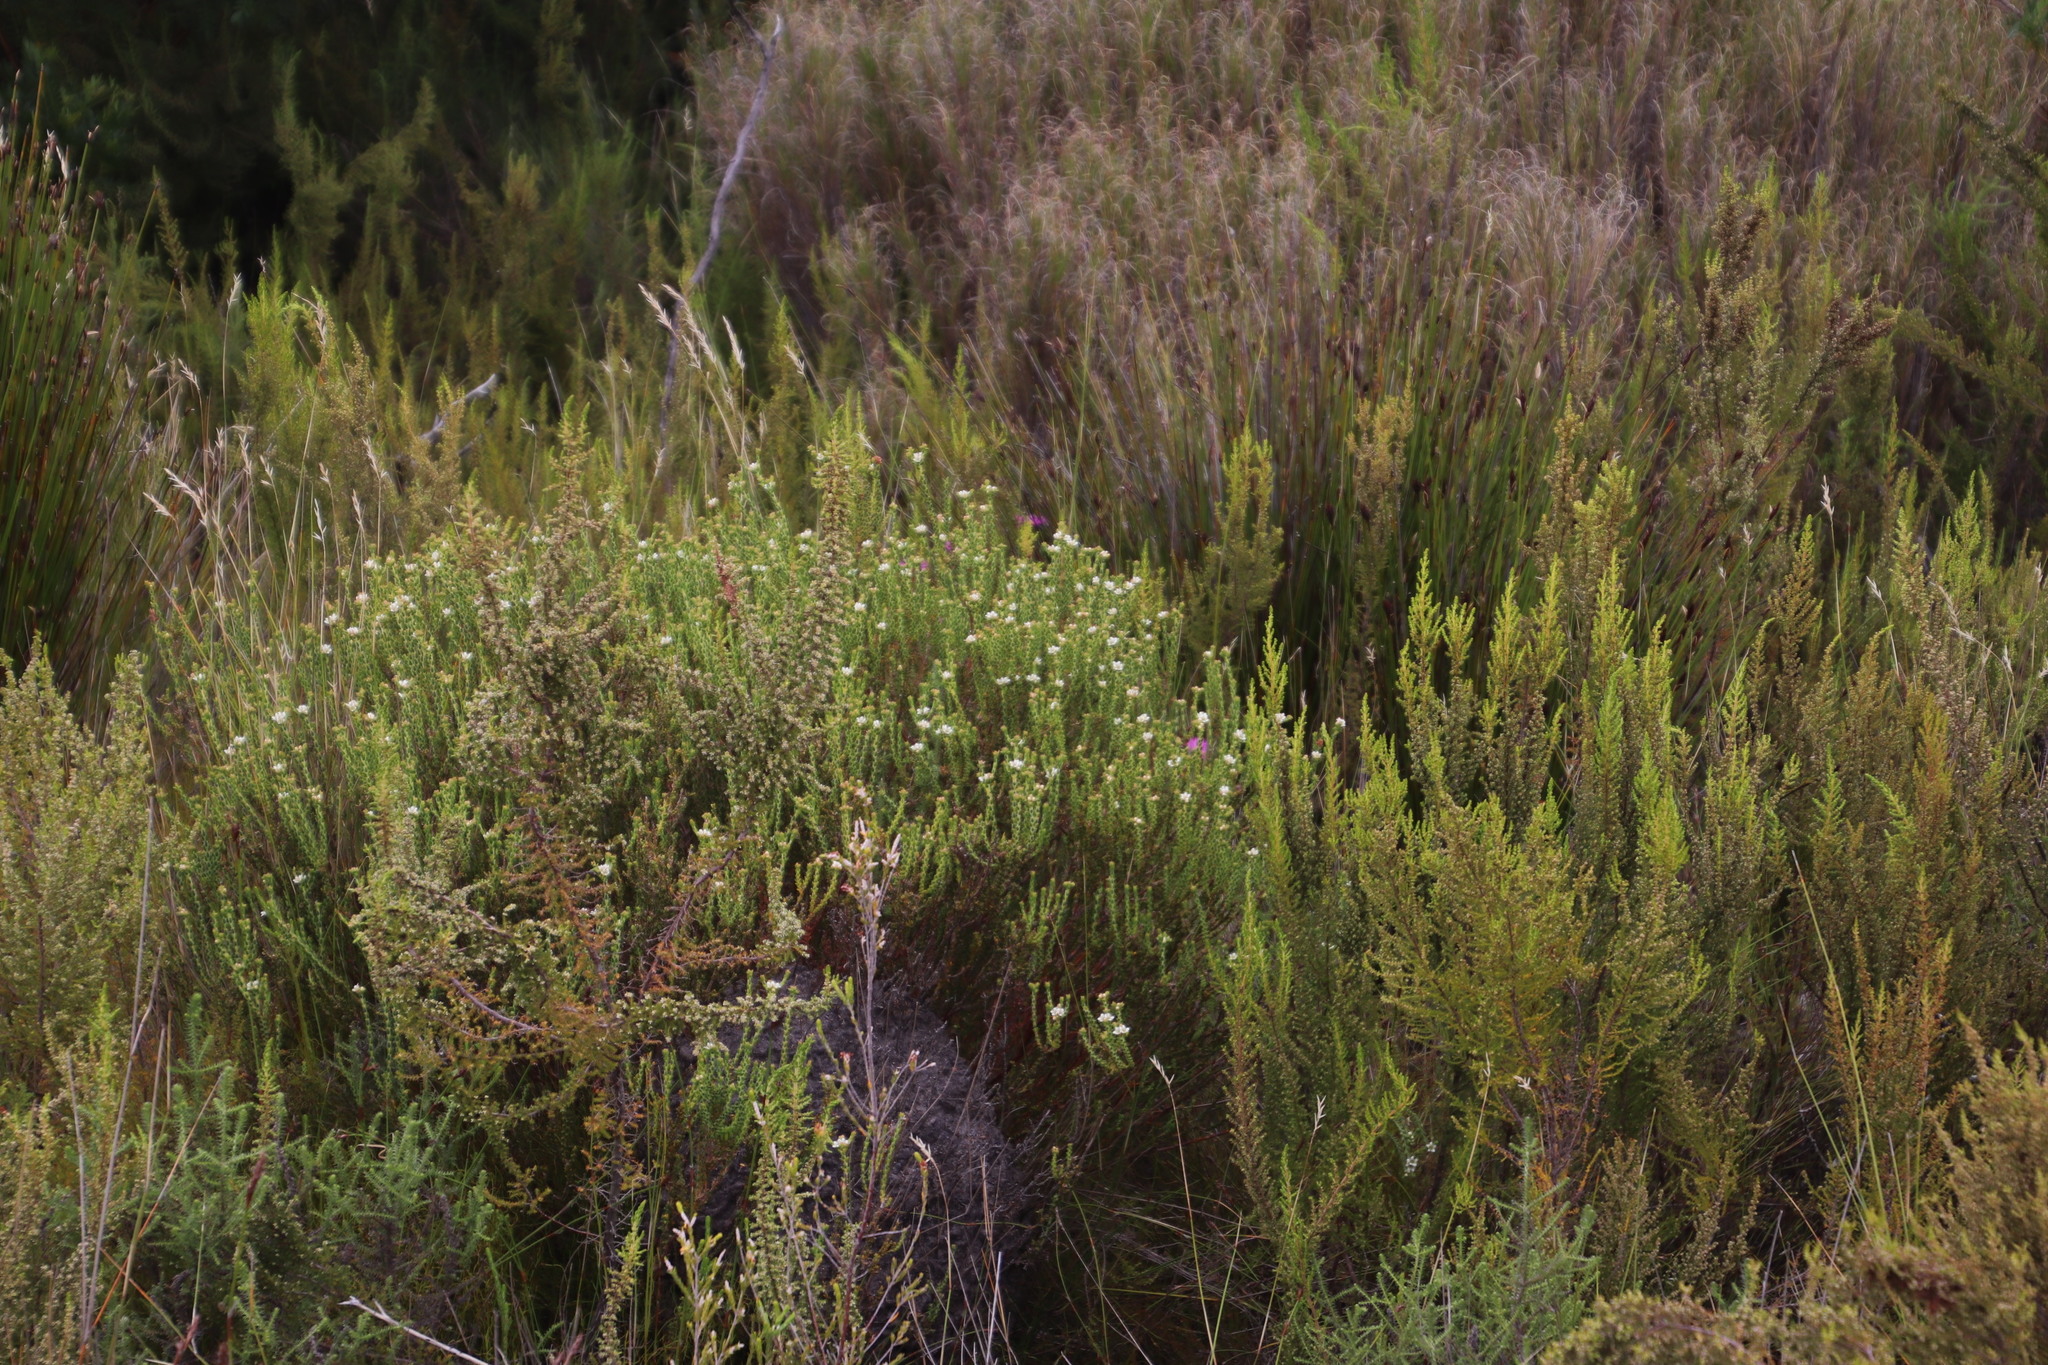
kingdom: Plantae
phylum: Tracheophyta
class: Magnoliopsida
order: Sapindales
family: Rutaceae
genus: Diosma
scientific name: Diosma oppositifolia
